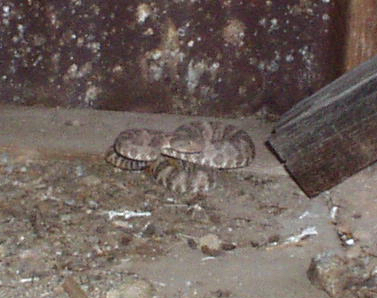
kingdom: Animalia
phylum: Chordata
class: Squamata
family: Viperidae
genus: Crotalus
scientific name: Crotalus pyrrhus
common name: Southwestern speckled rattlesnake
